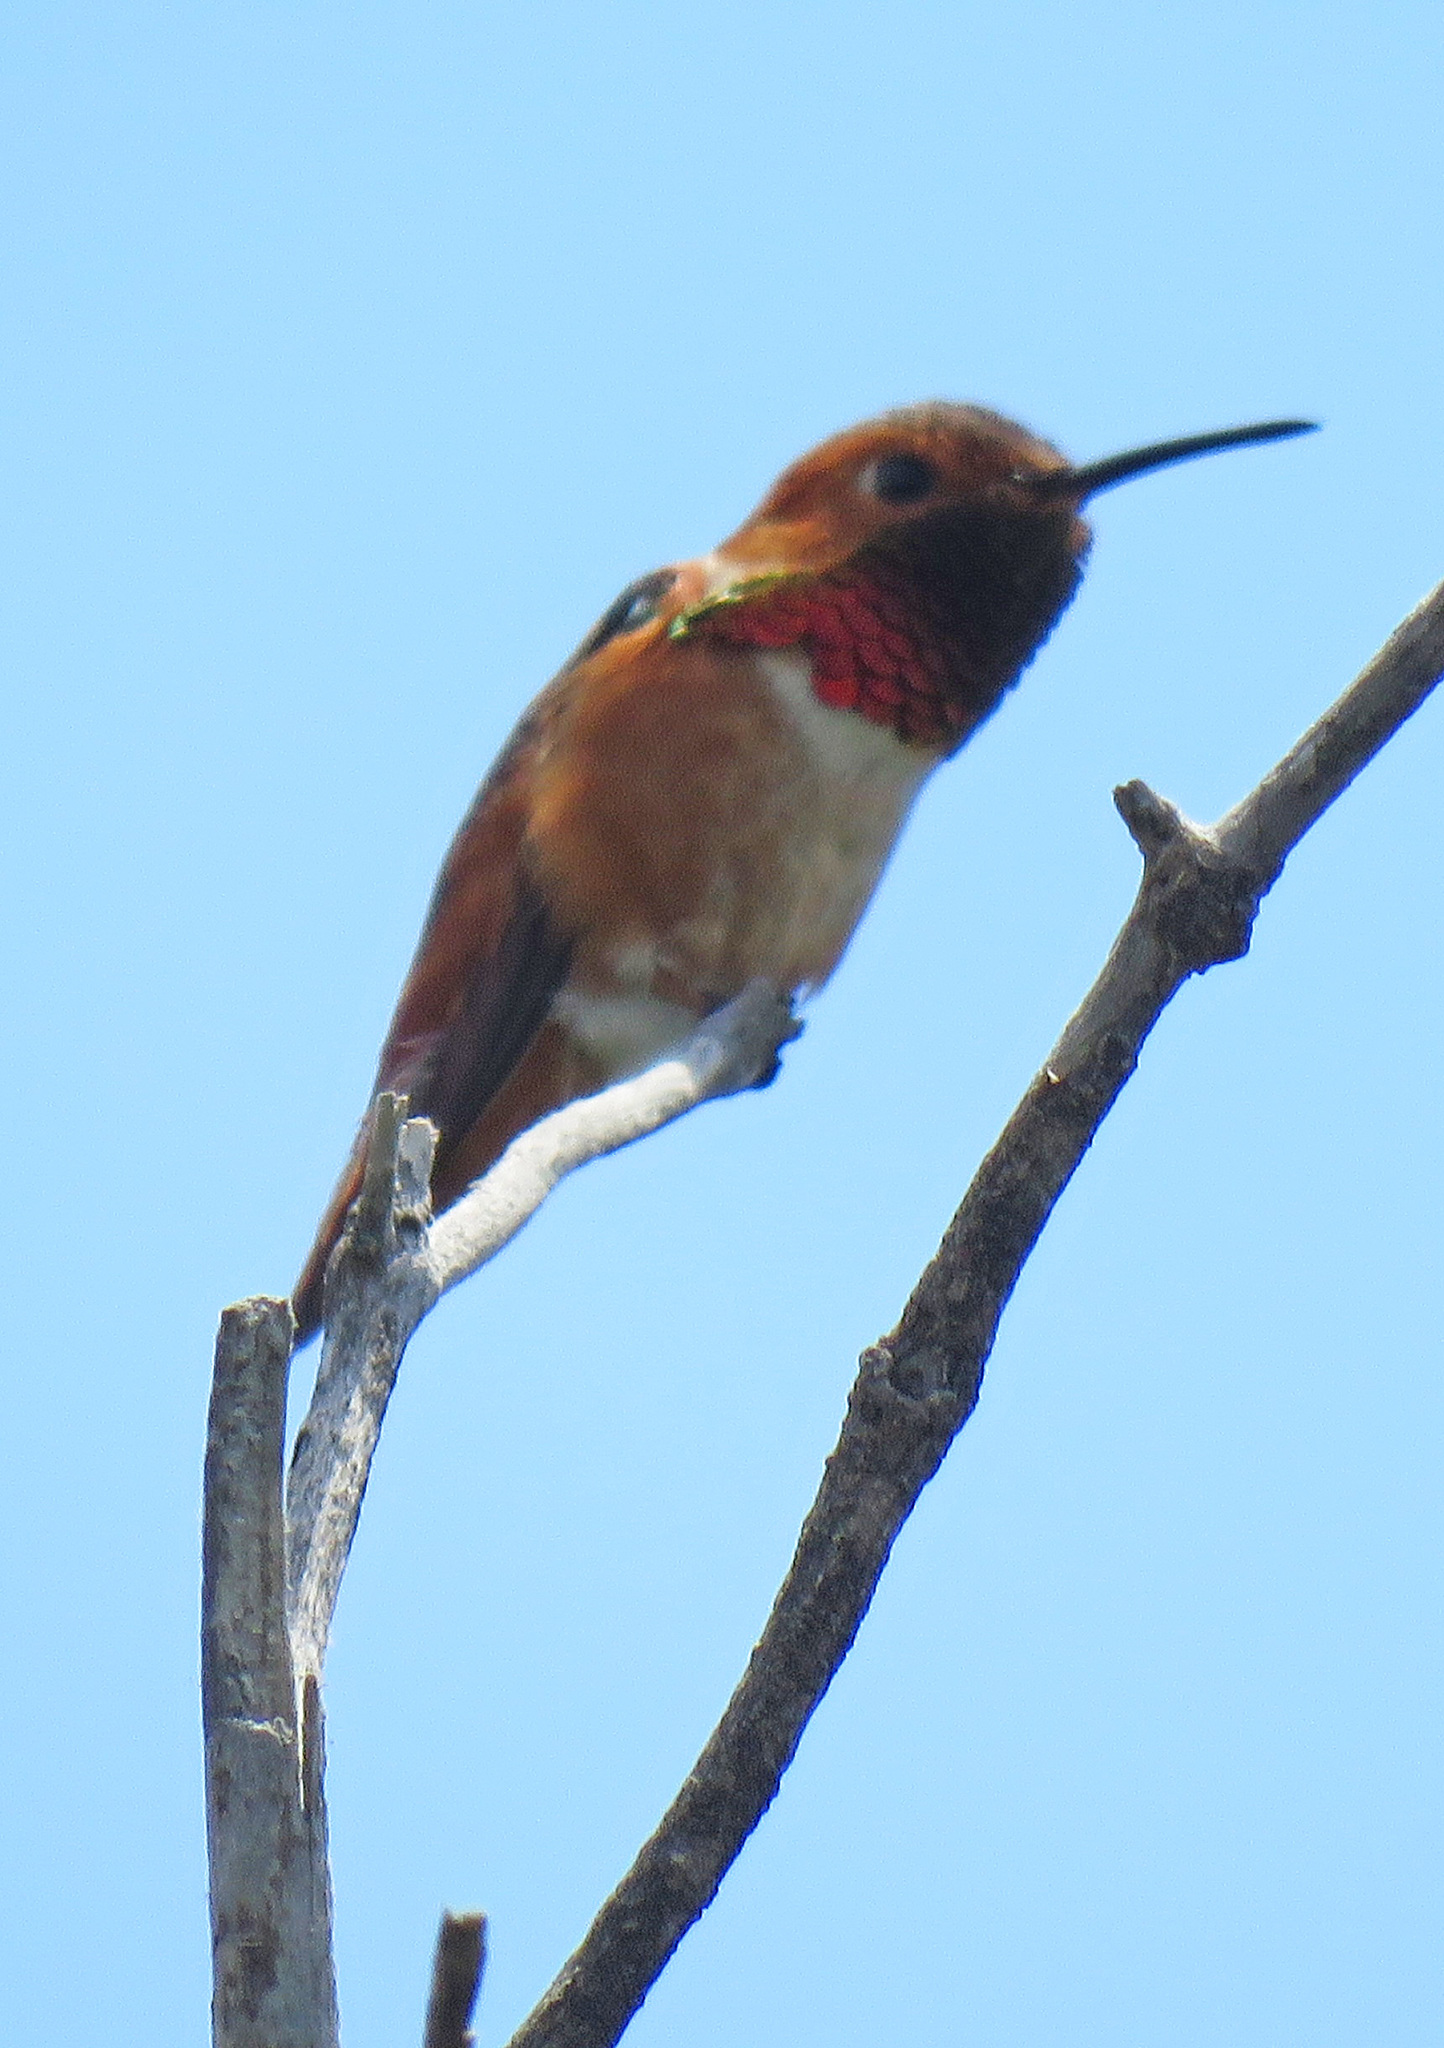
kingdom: Animalia
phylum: Chordata
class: Aves
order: Apodiformes
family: Trochilidae
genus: Selasphorus
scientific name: Selasphorus
